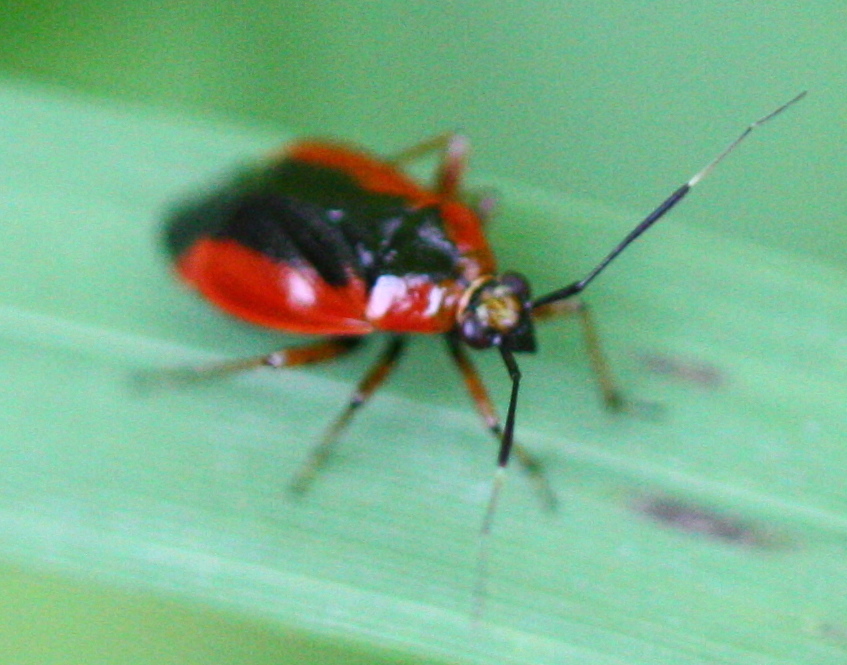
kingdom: Animalia
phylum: Arthropoda
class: Insecta
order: Hemiptera
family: Miridae
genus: Metriorrhynchomiris
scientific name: Metriorrhynchomiris dislocatus
